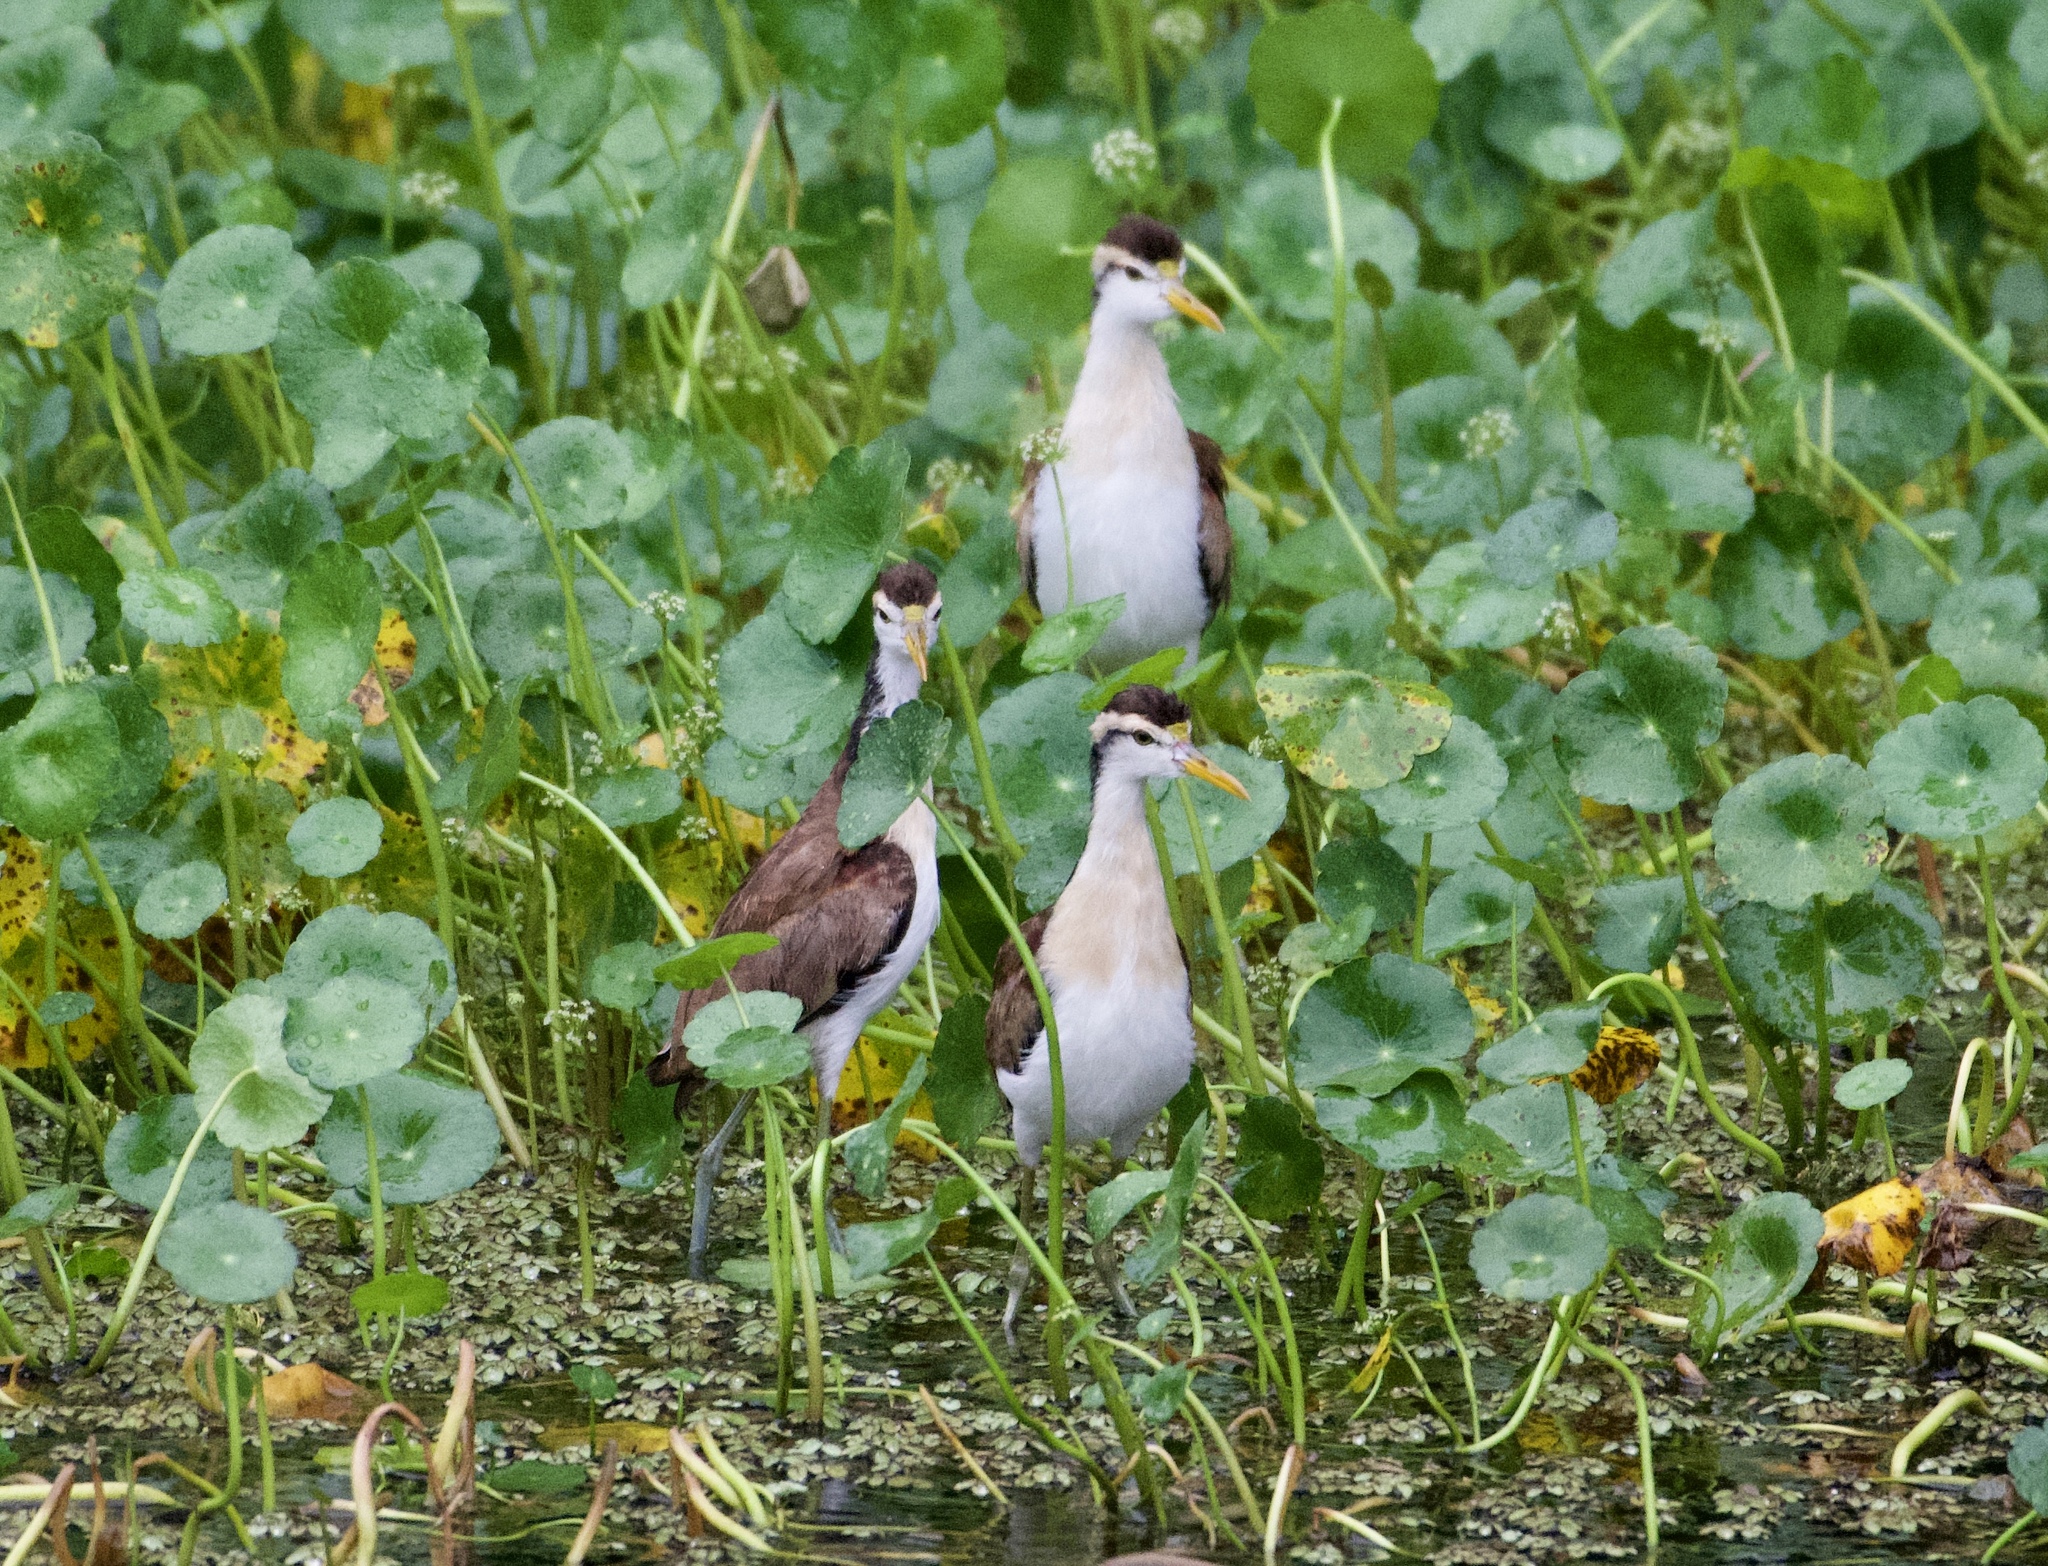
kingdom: Animalia
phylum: Chordata
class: Aves
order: Charadriiformes
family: Jacanidae
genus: Jacana
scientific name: Jacana spinosa
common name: Northern jacana
